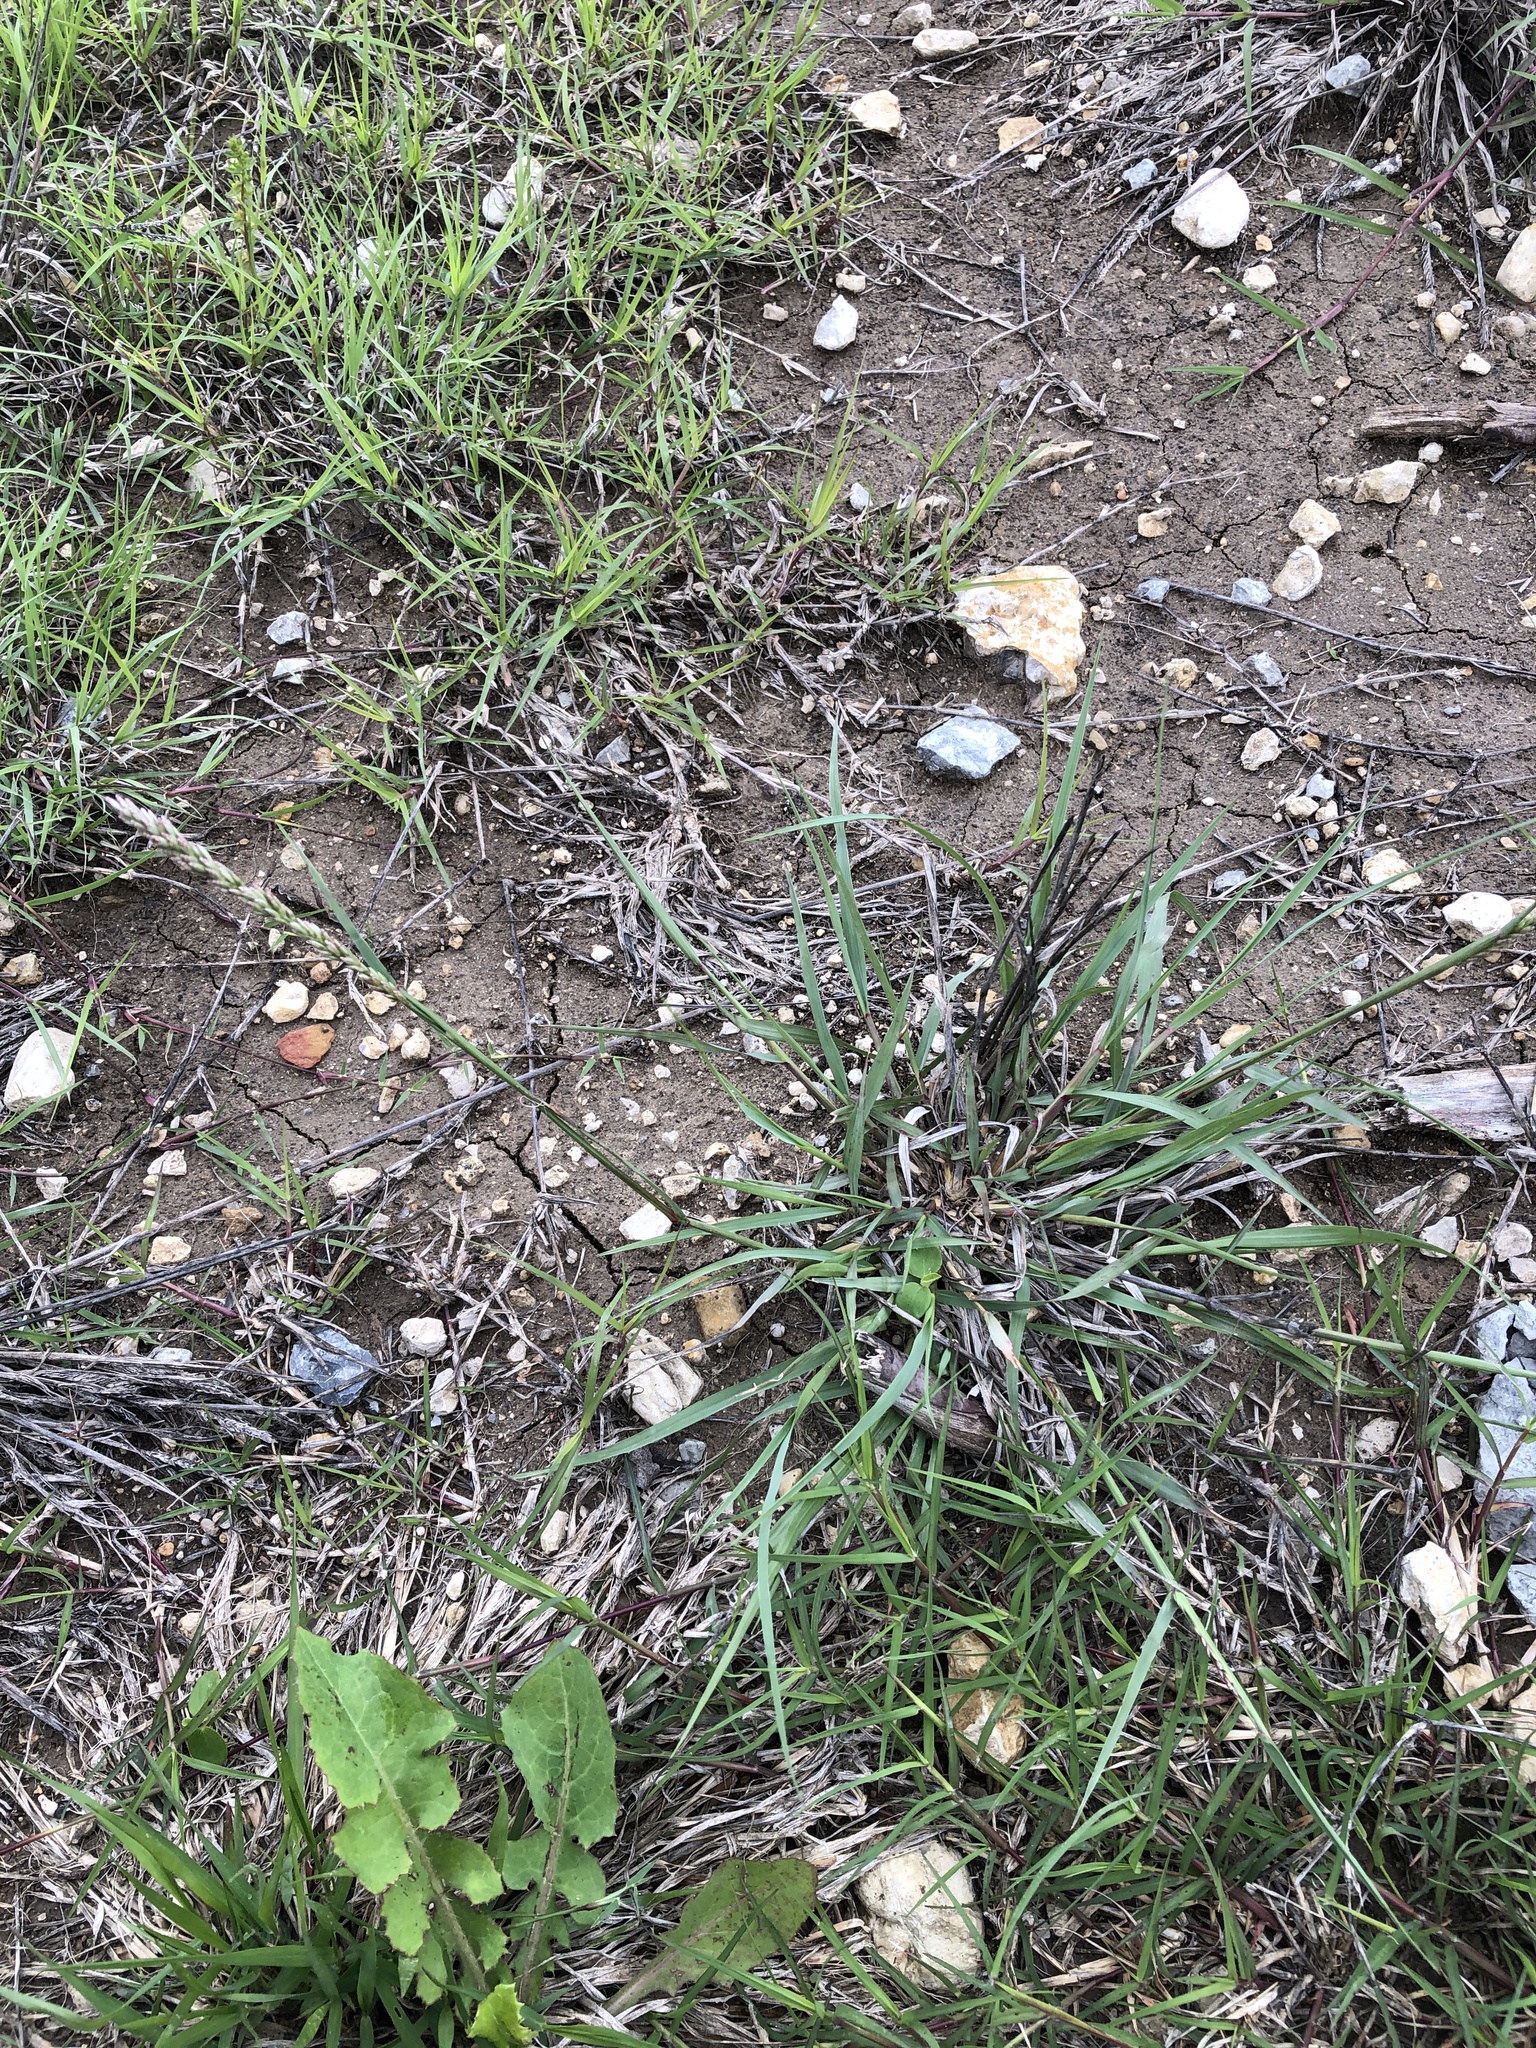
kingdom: Plantae
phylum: Tracheophyta
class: Liliopsida
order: Poales
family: Poaceae
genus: Tridens
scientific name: Tridens albescens
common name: White tridens
